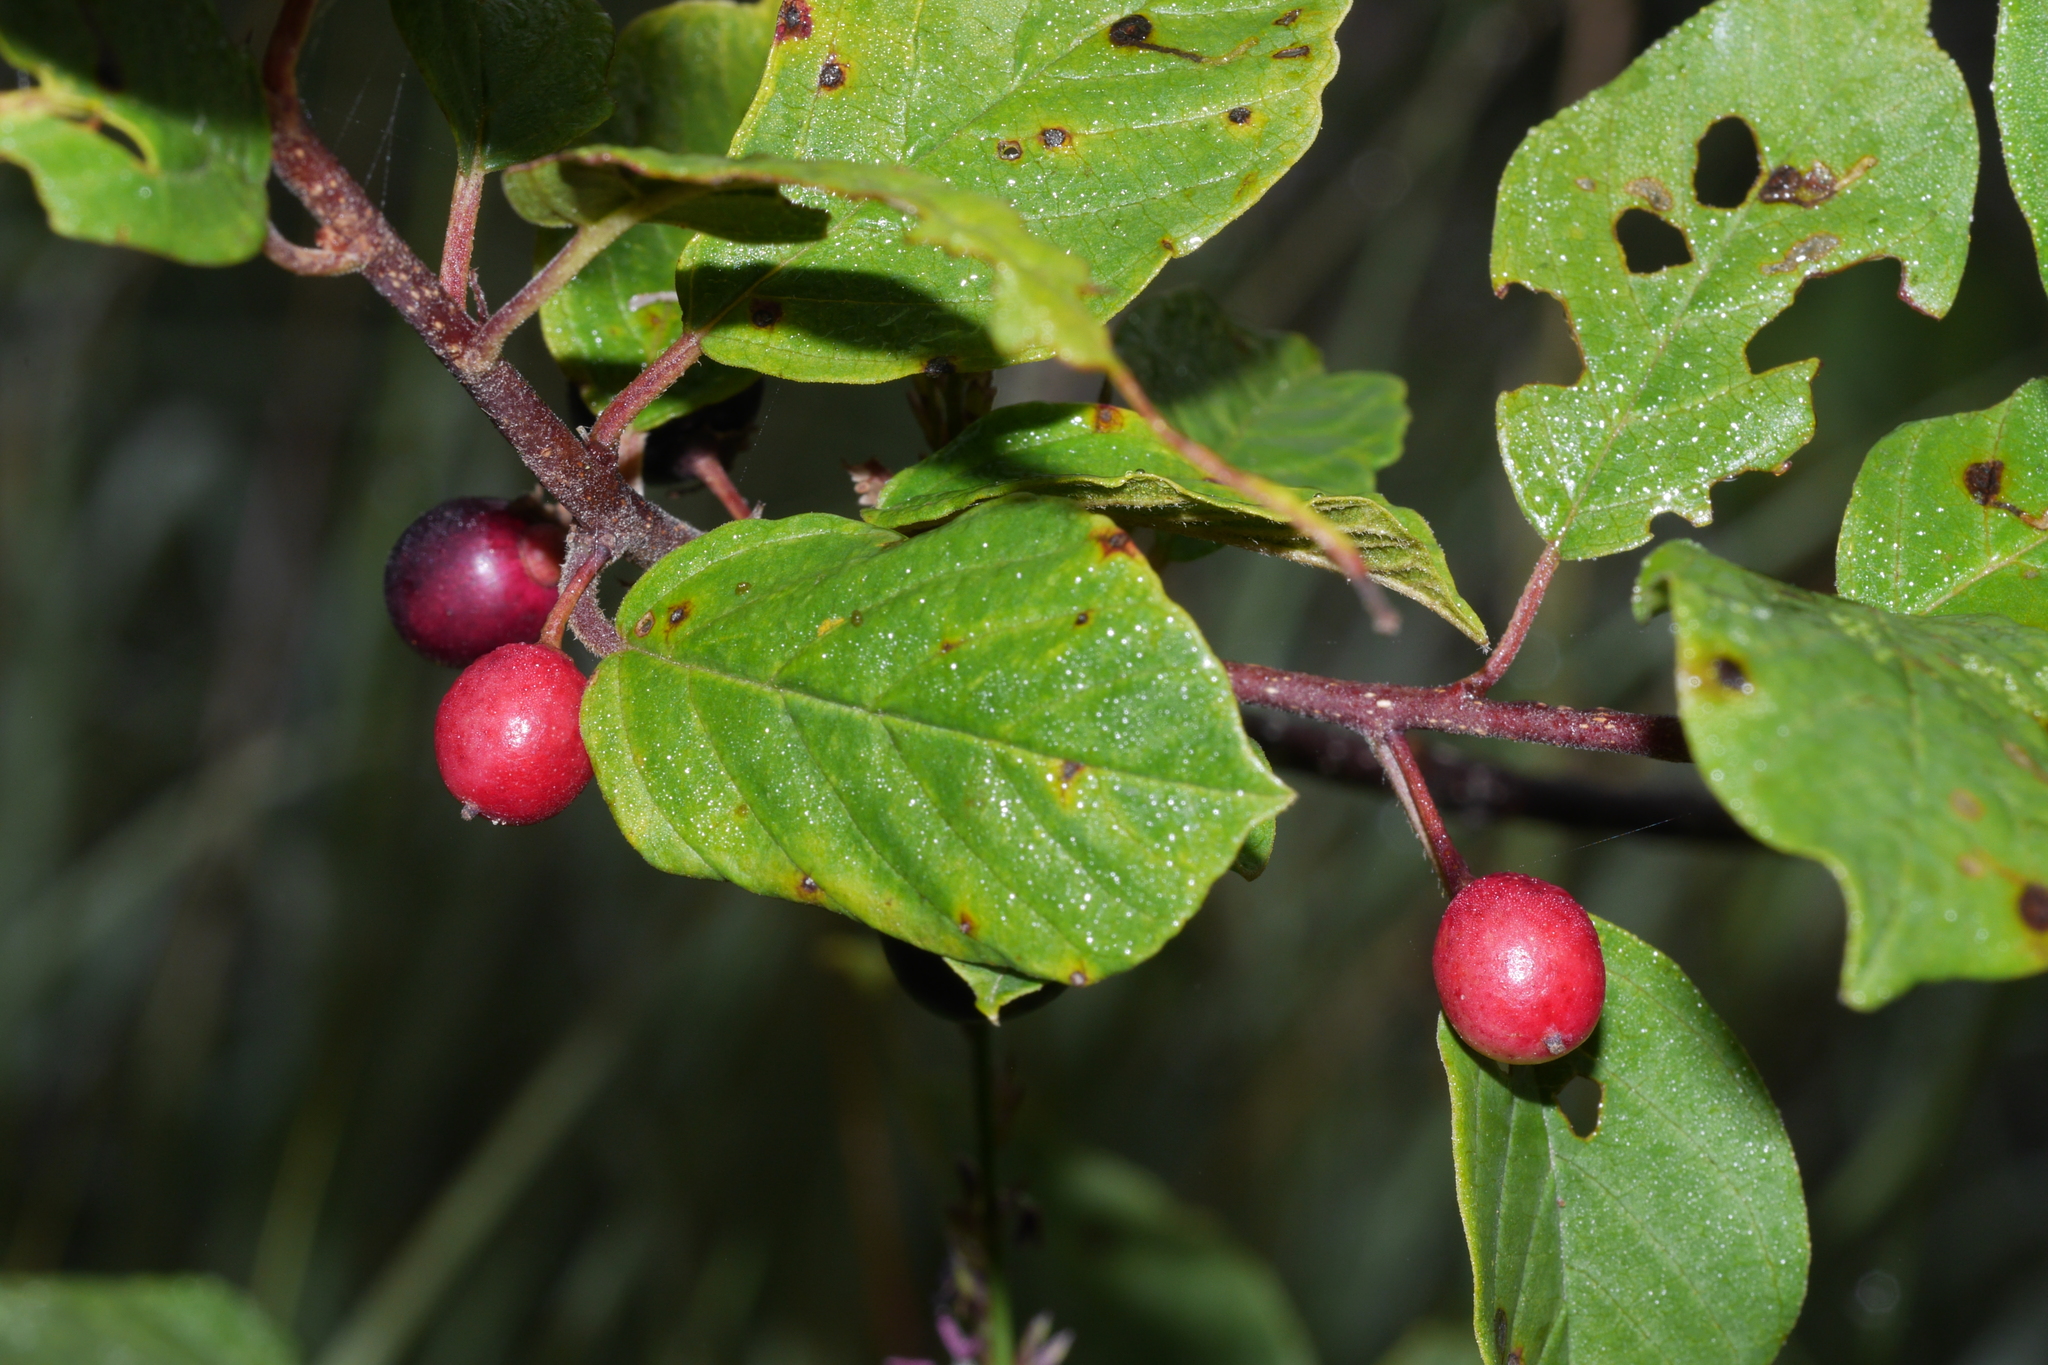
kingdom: Plantae
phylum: Tracheophyta
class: Magnoliopsida
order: Rosales
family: Rhamnaceae
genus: Frangula
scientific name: Frangula alnus
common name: Alder buckthorn
